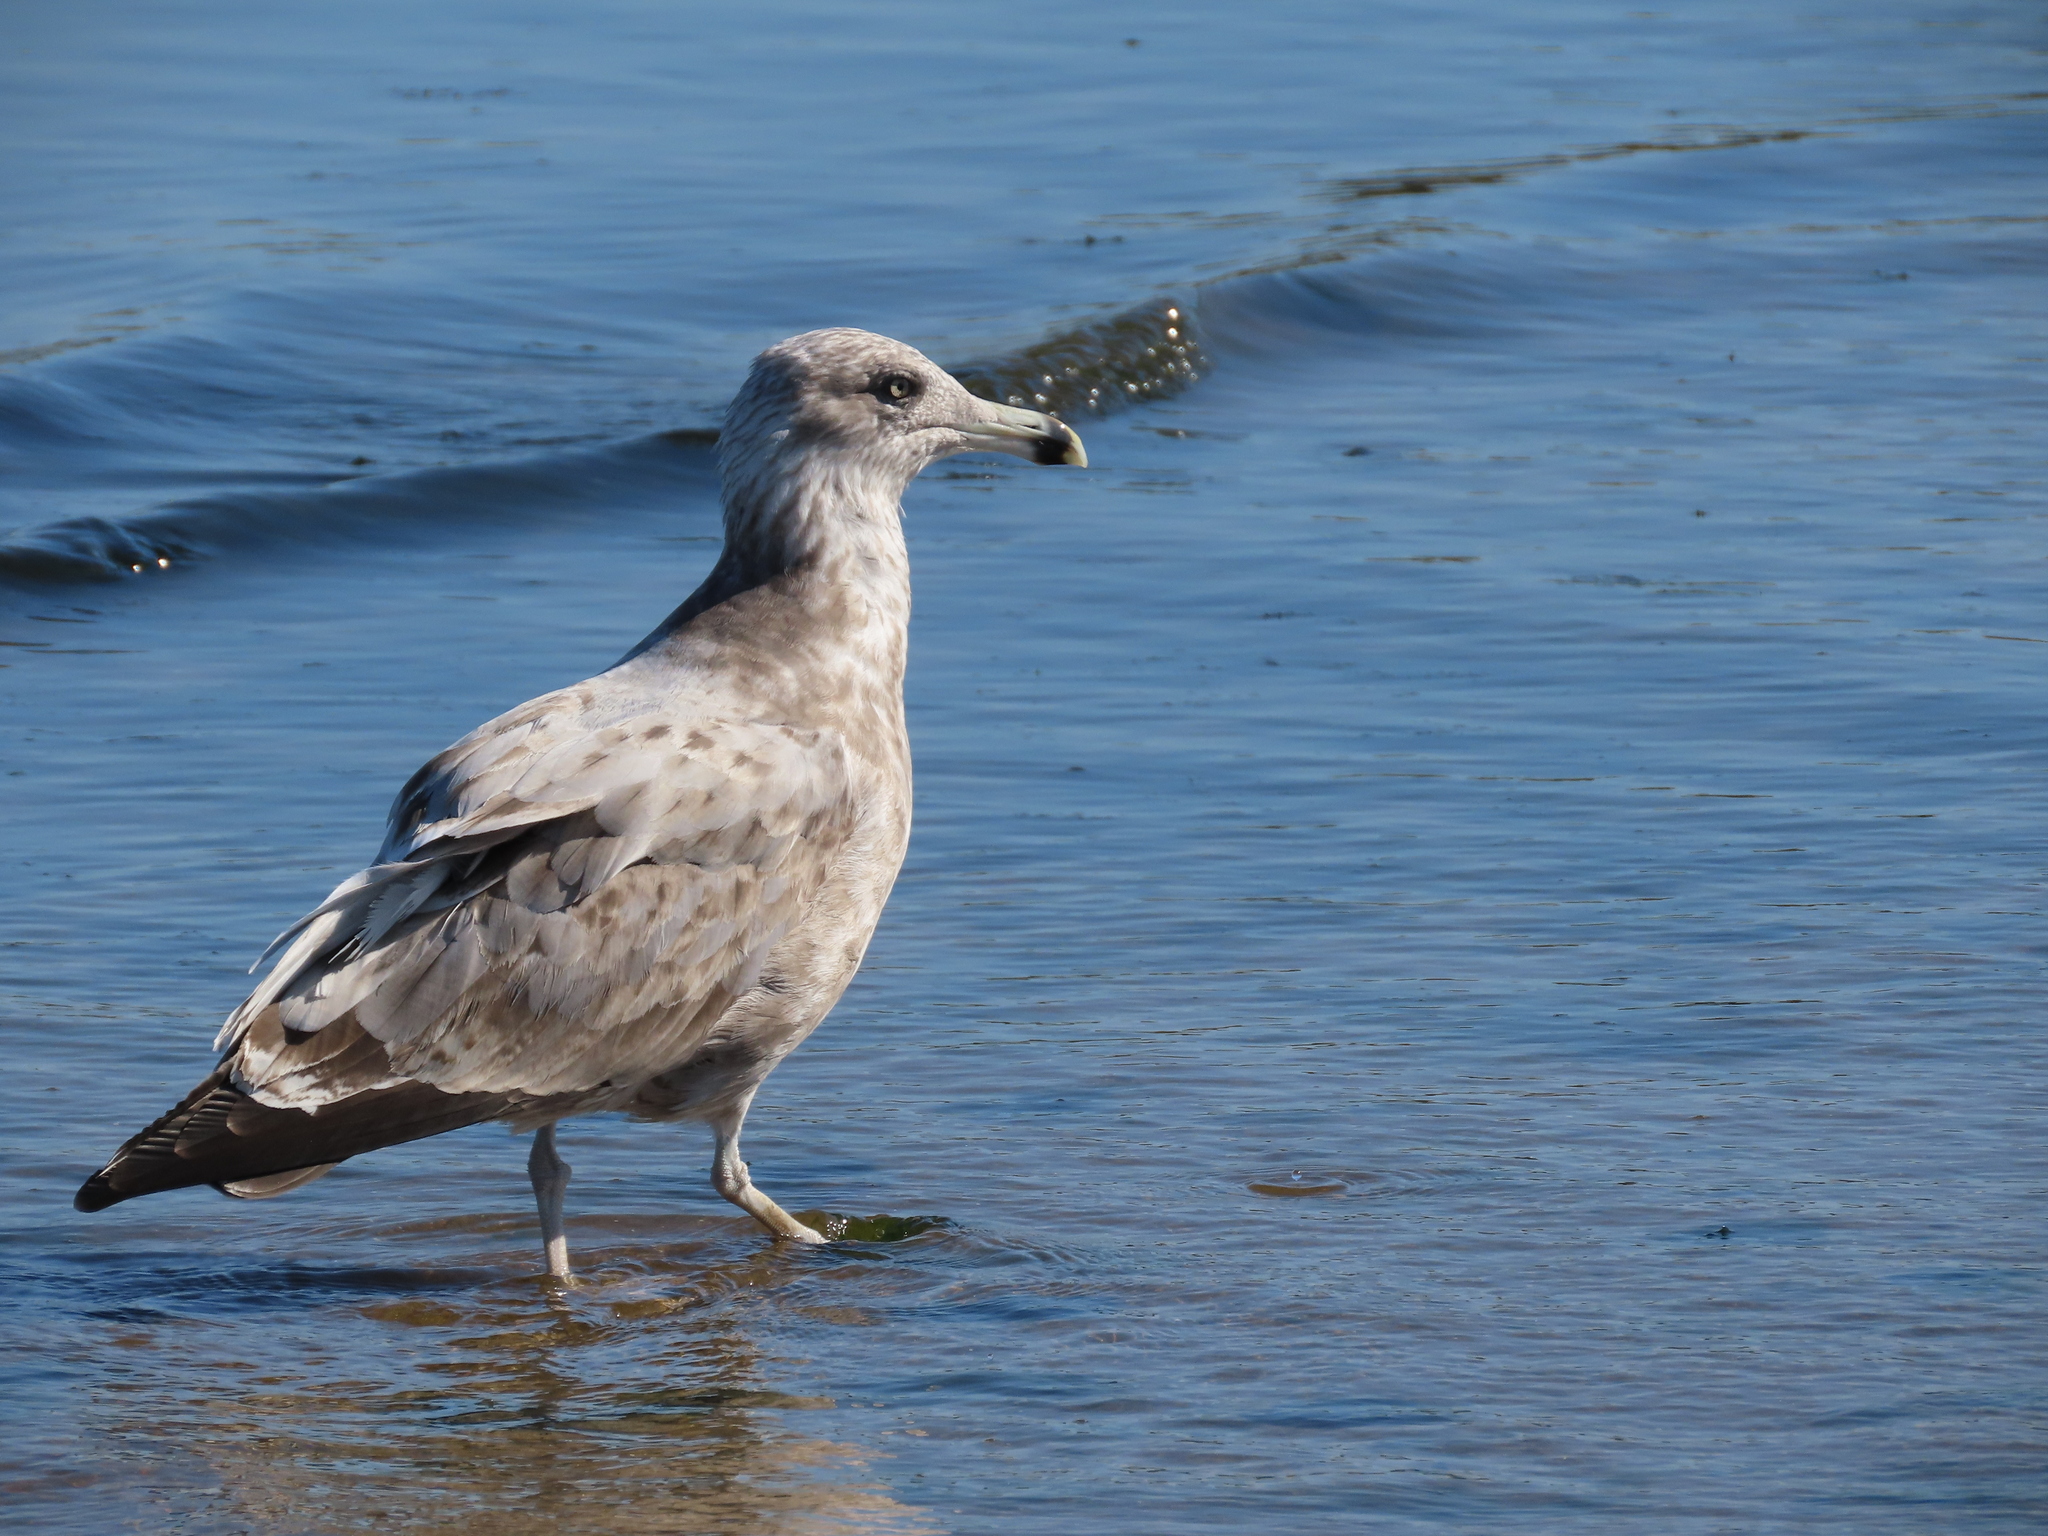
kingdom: Animalia
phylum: Chordata
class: Aves
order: Charadriiformes
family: Laridae
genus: Larus
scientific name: Larus argentatus
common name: Herring gull
